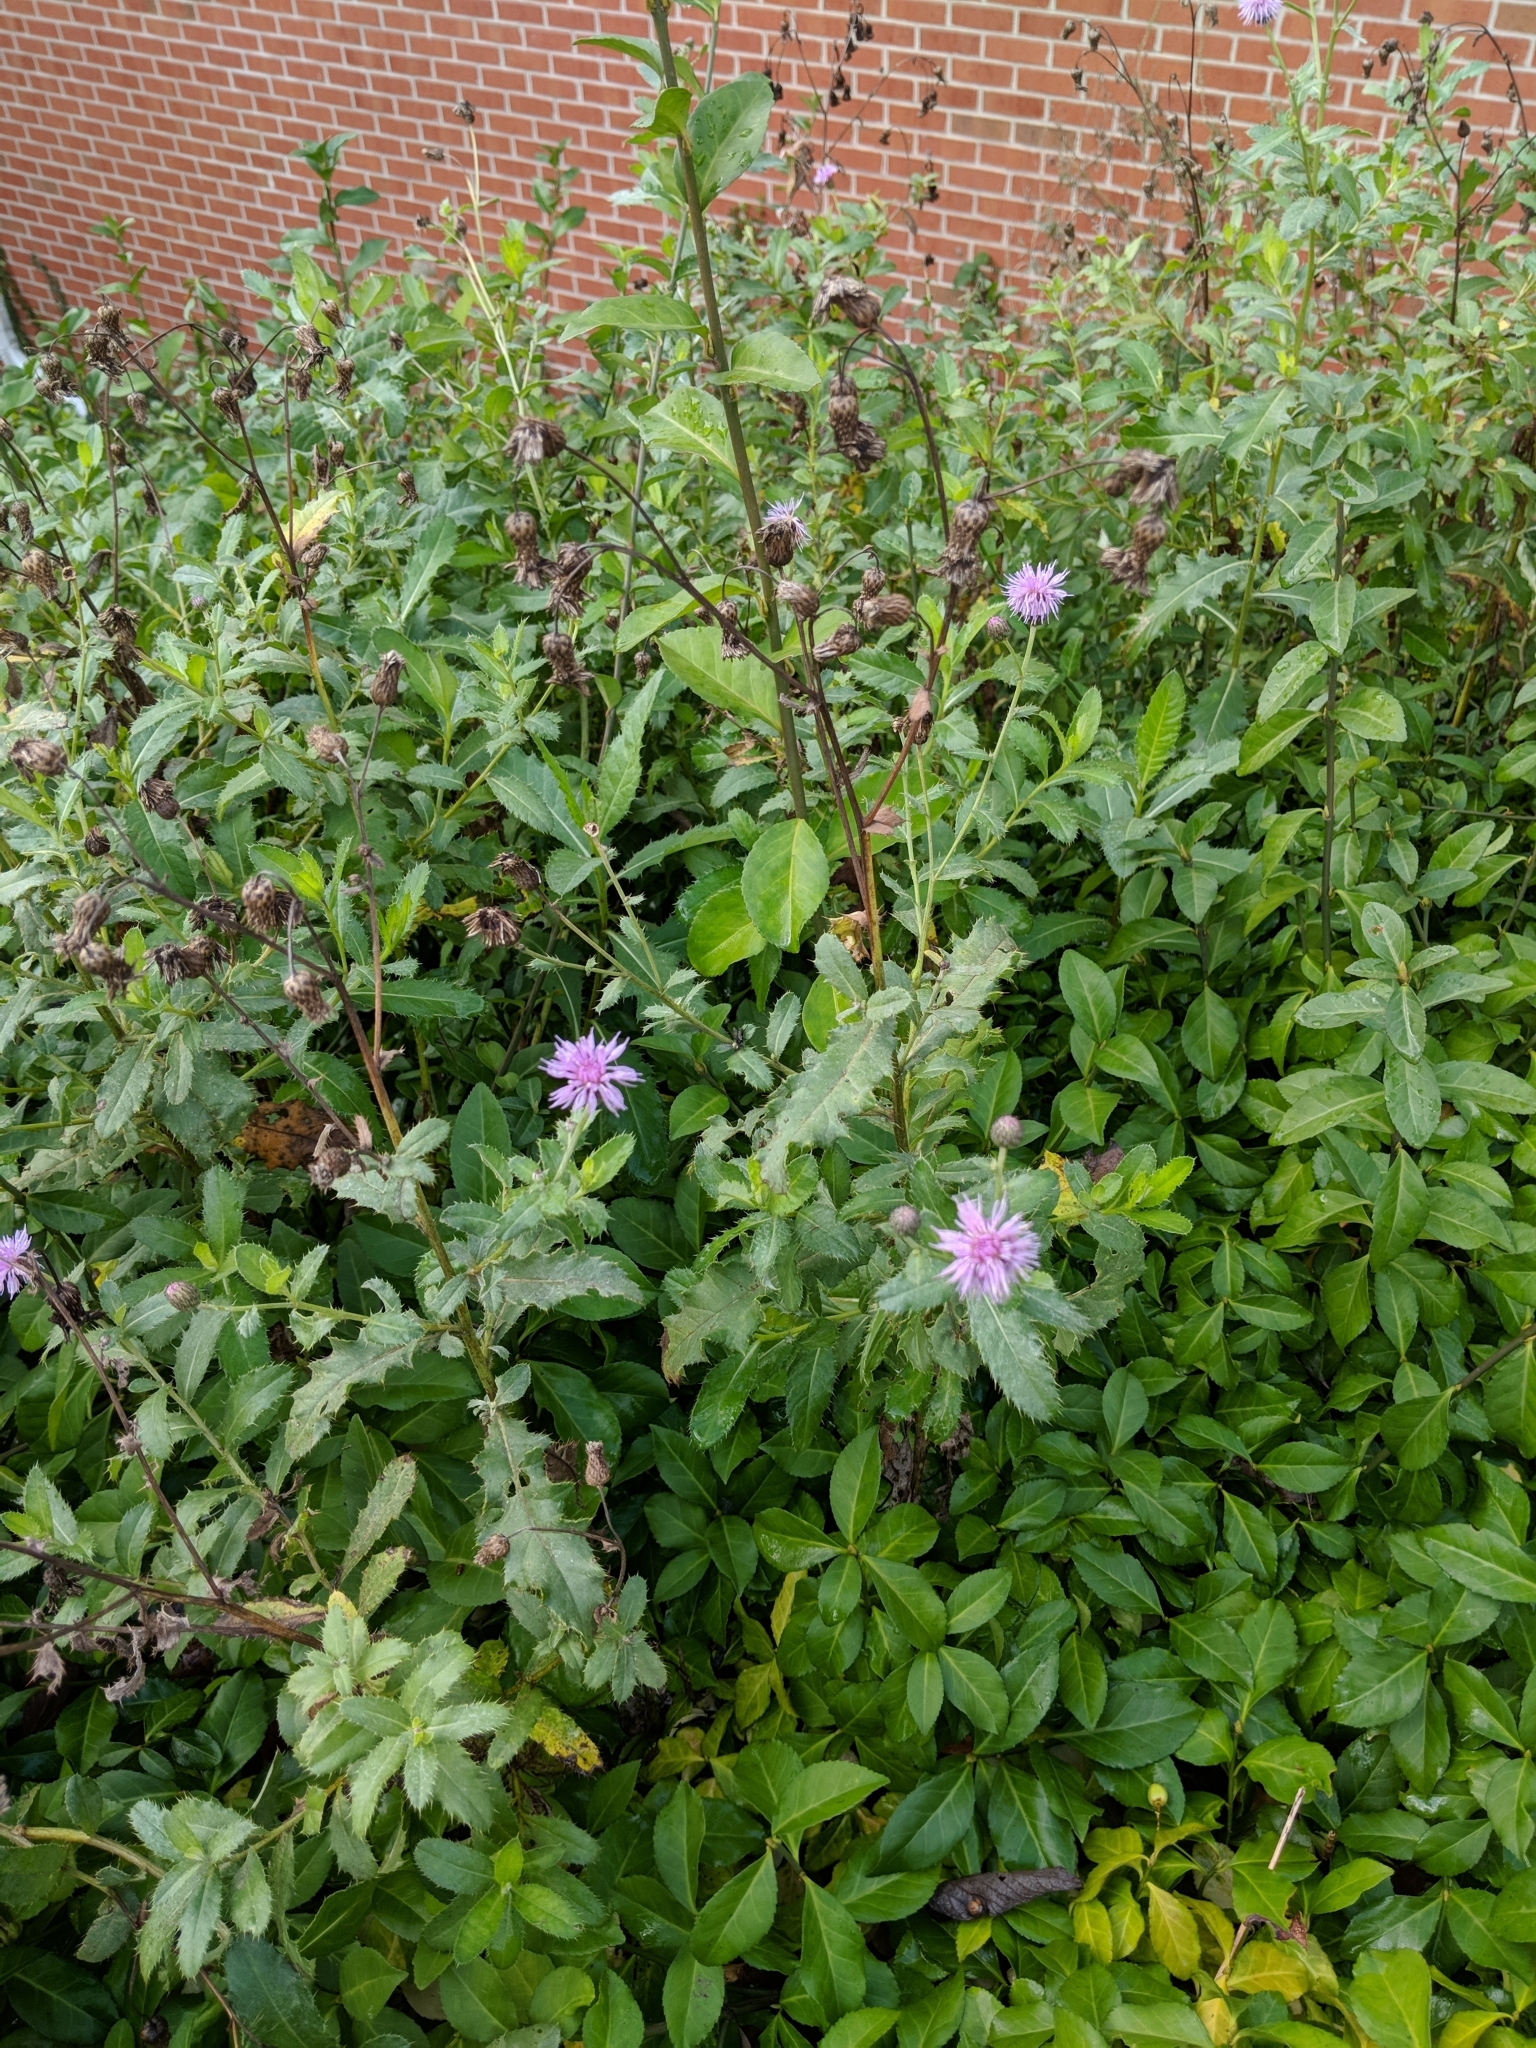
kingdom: Plantae
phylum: Tracheophyta
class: Magnoliopsida
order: Asterales
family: Asteraceae
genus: Cirsium
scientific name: Cirsium arvense
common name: Creeping thistle
